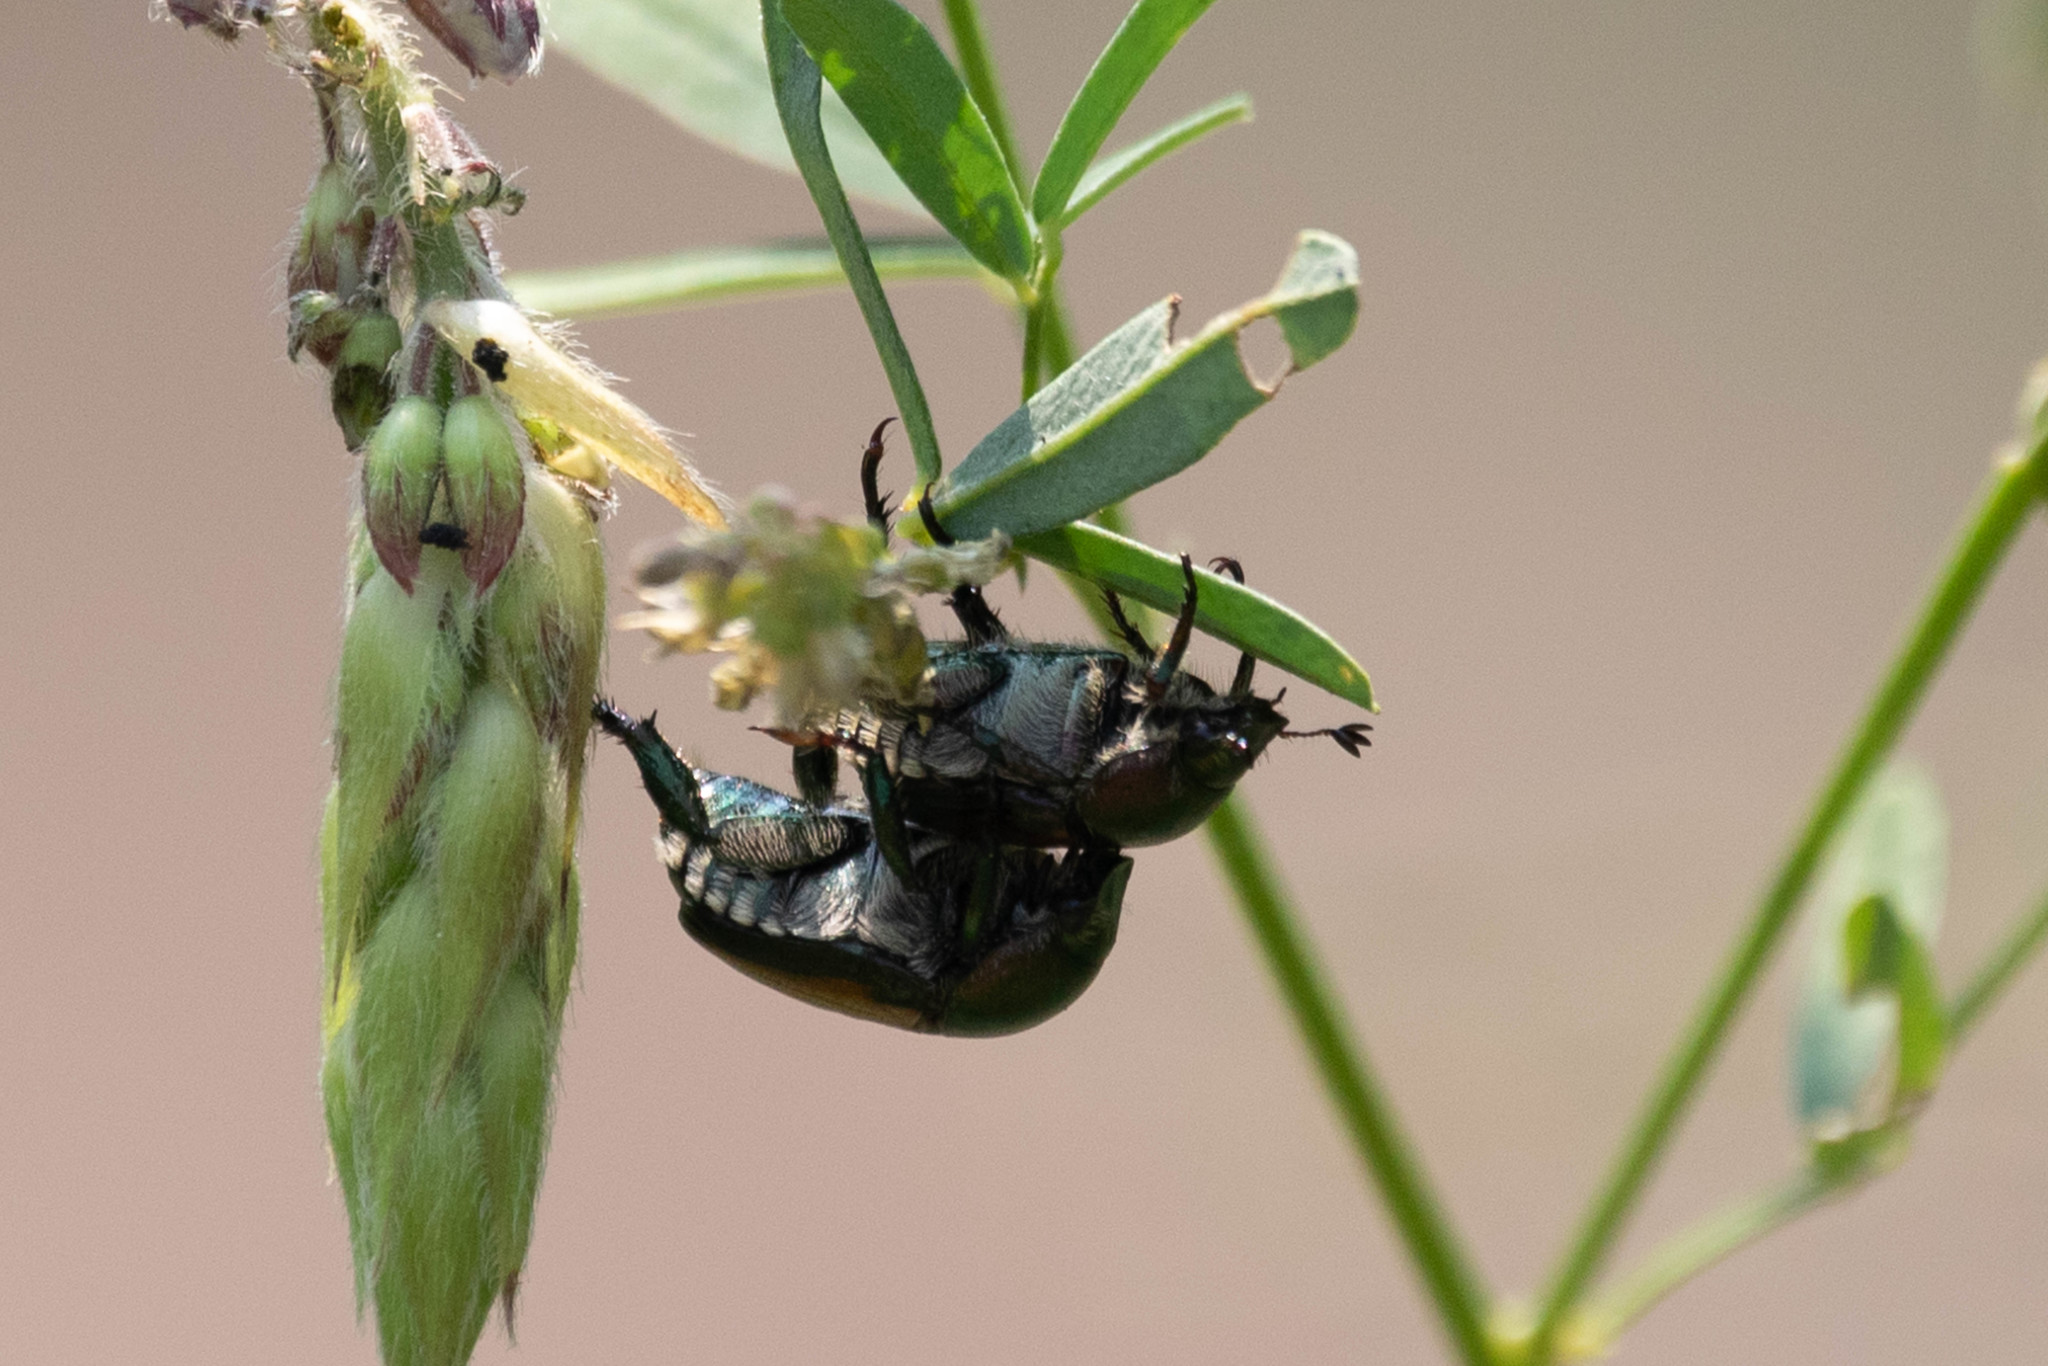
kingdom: Animalia
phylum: Arthropoda
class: Insecta
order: Coleoptera
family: Scarabaeidae
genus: Popillia
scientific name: Popillia japonica
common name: Japanese beetle
